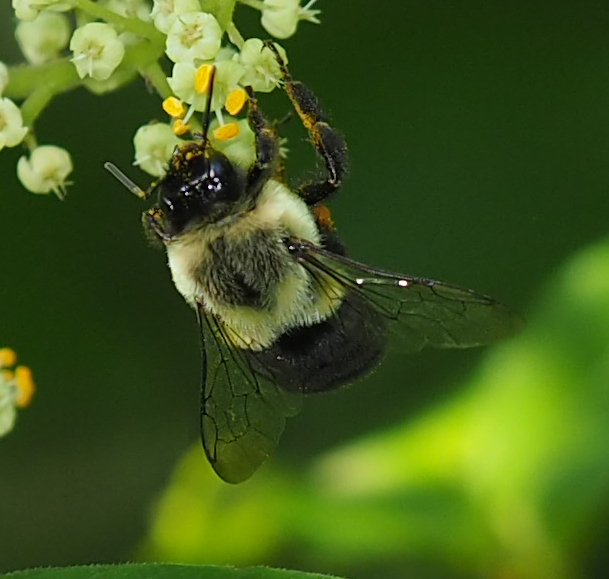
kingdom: Animalia
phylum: Arthropoda
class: Insecta
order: Hymenoptera
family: Apidae
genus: Bombus
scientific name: Bombus impatiens
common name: Common eastern bumble bee
